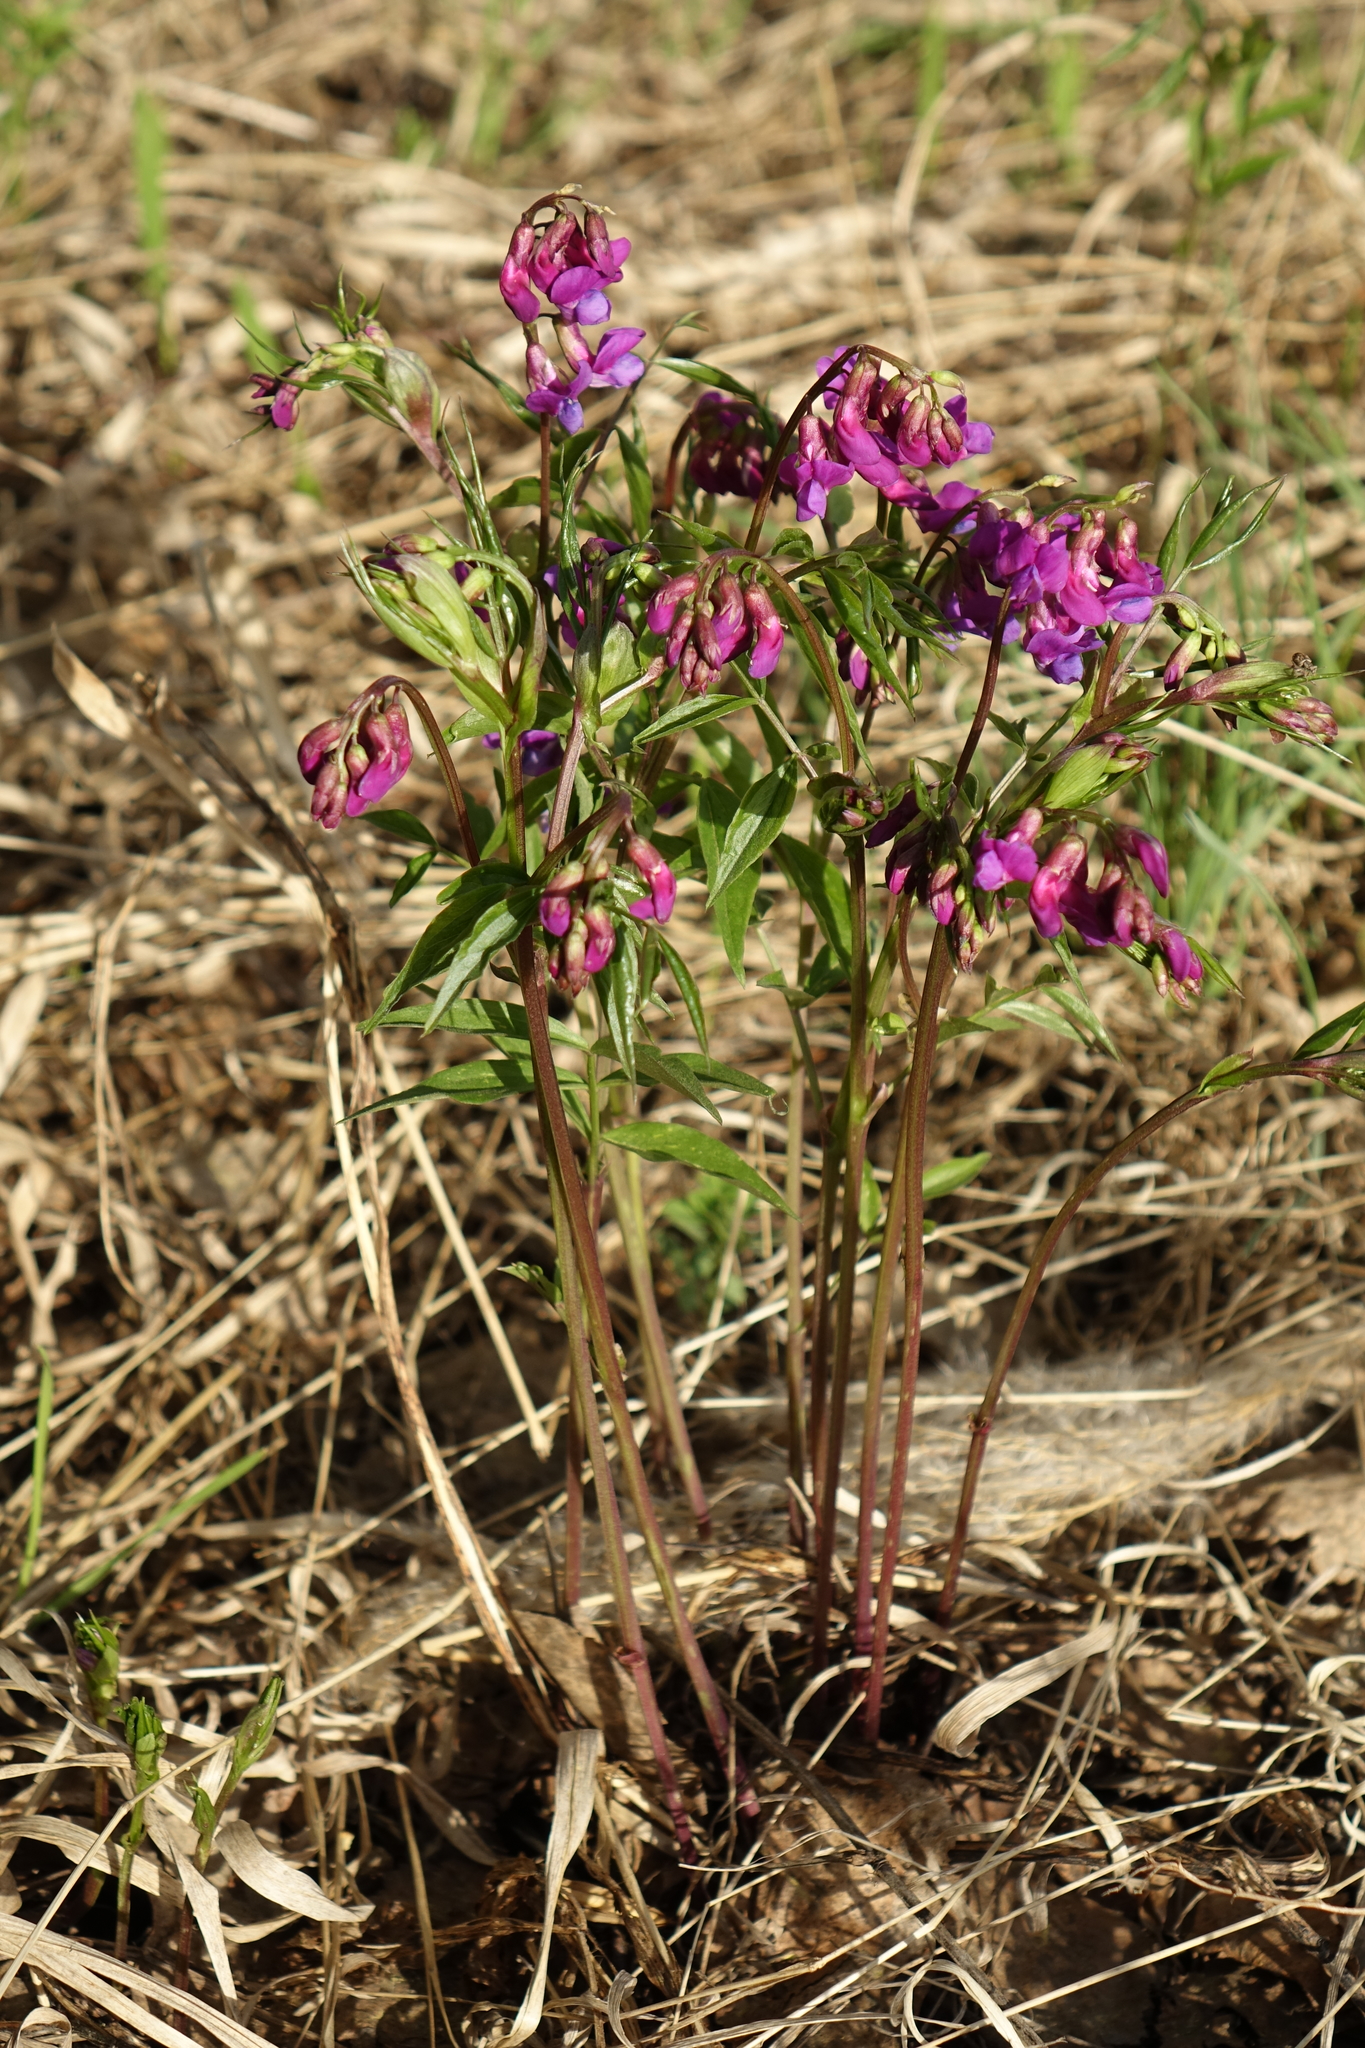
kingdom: Plantae
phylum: Tracheophyta
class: Magnoliopsida
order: Fabales
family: Fabaceae
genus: Lathyrus
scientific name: Lathyrus vernus
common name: Spring pea
